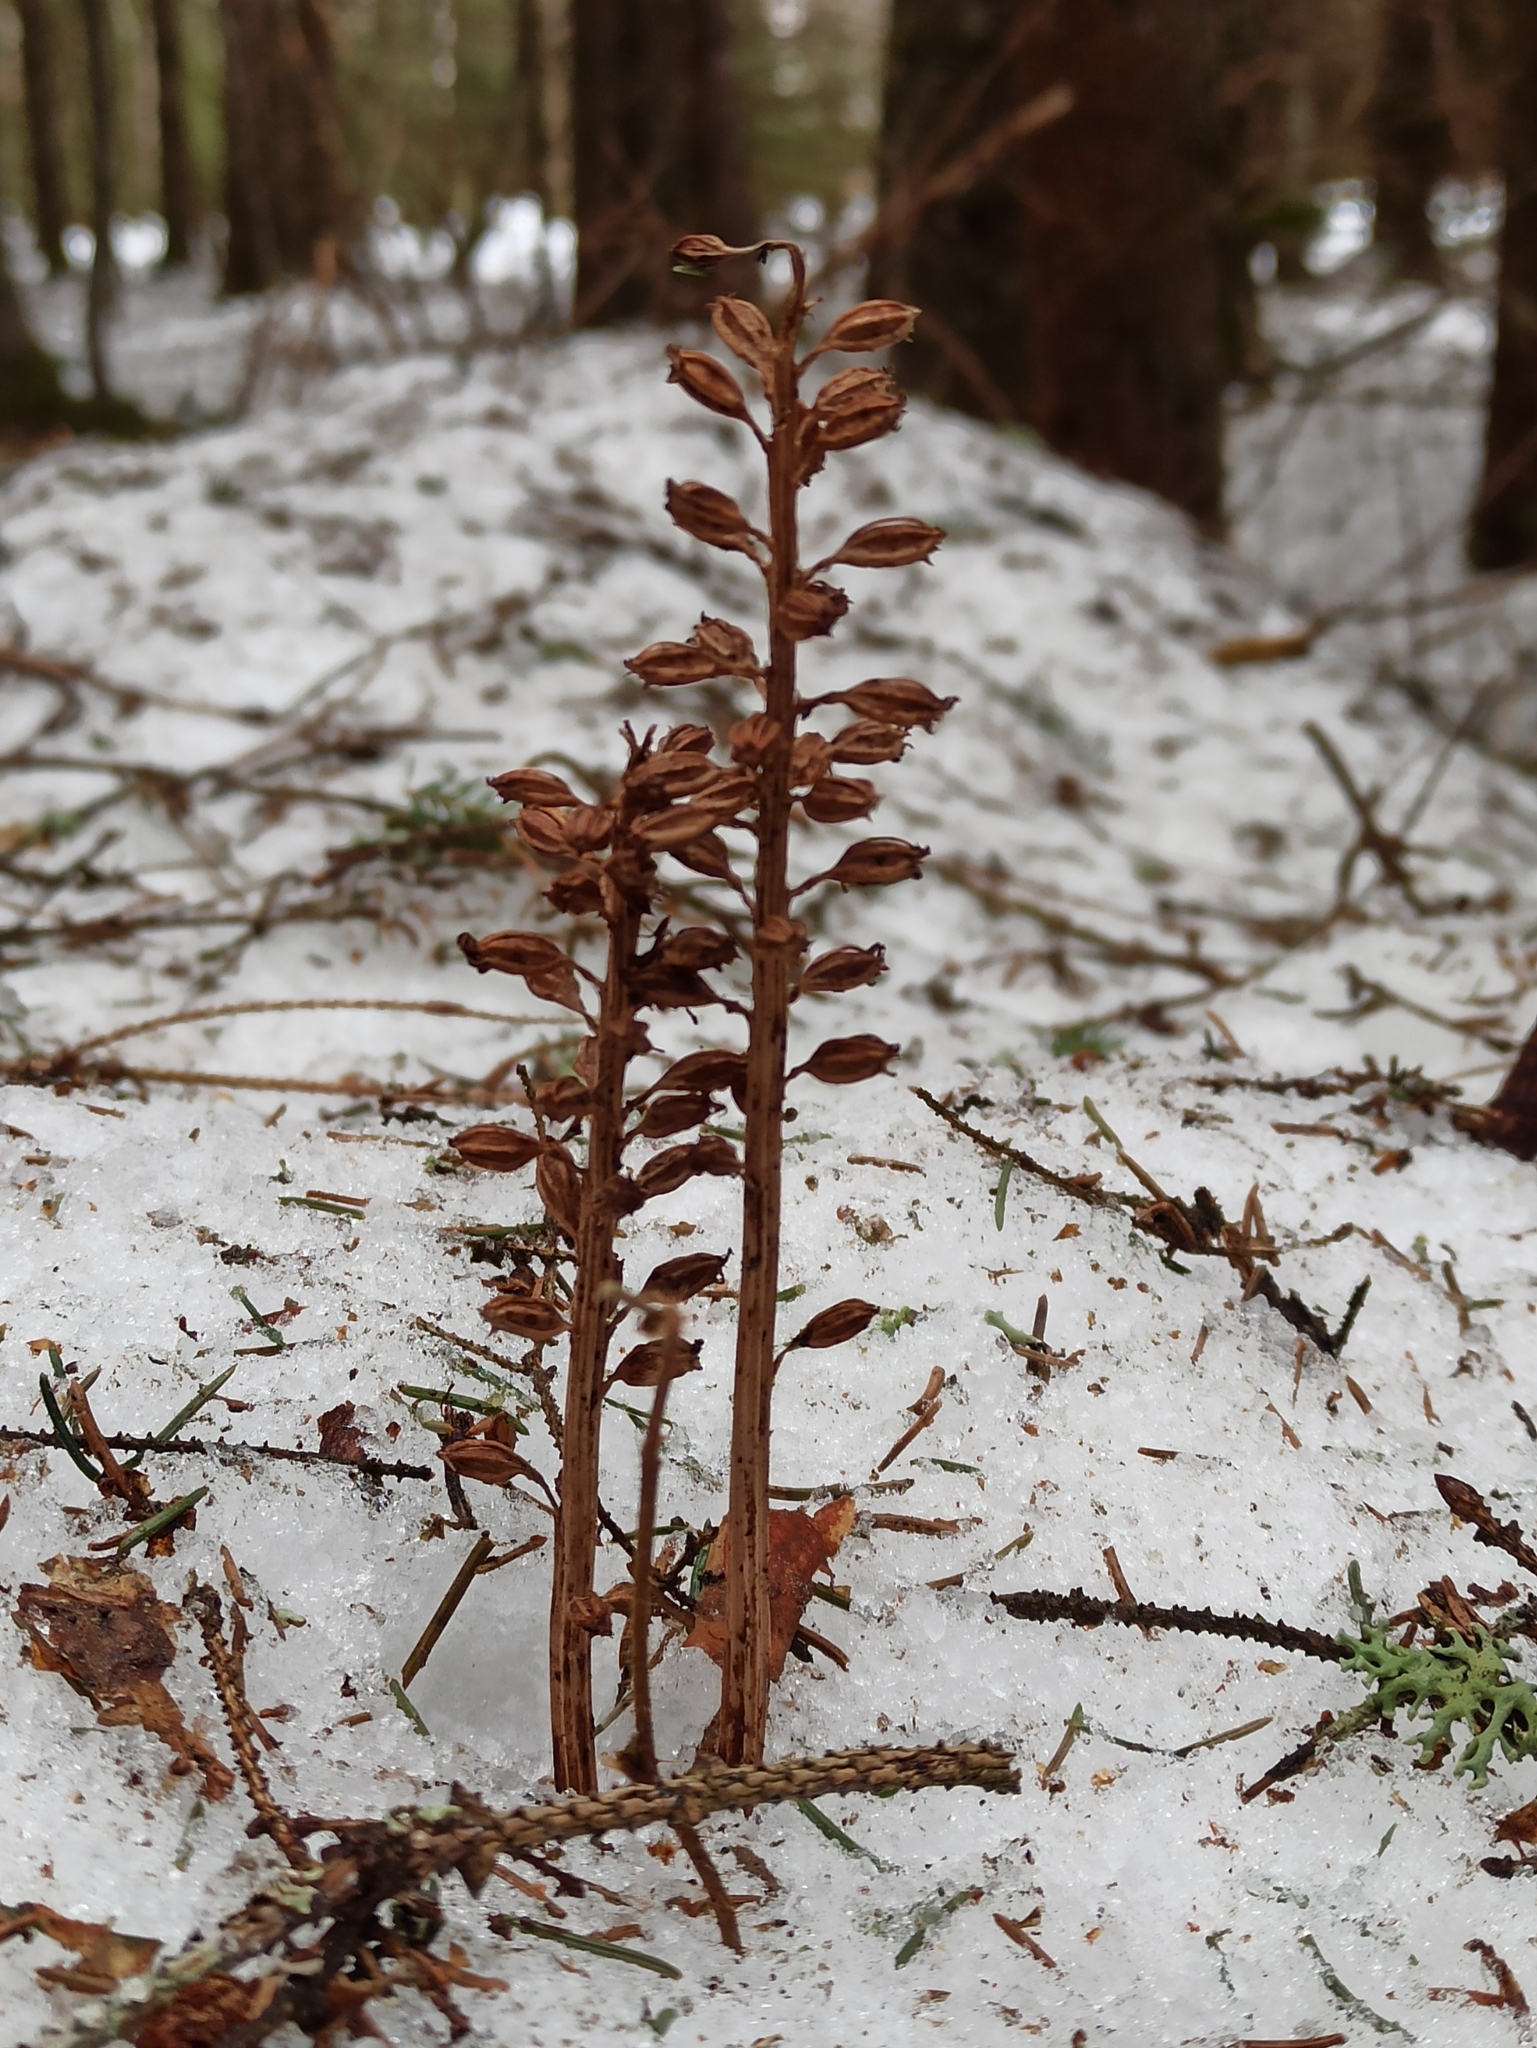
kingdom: Plantae
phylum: Tracheophyta
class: Liliopsida
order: Asparagales
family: Orchidaceae
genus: Neottia
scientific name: Neottia nidus-avis
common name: Bird's-nest orchid
